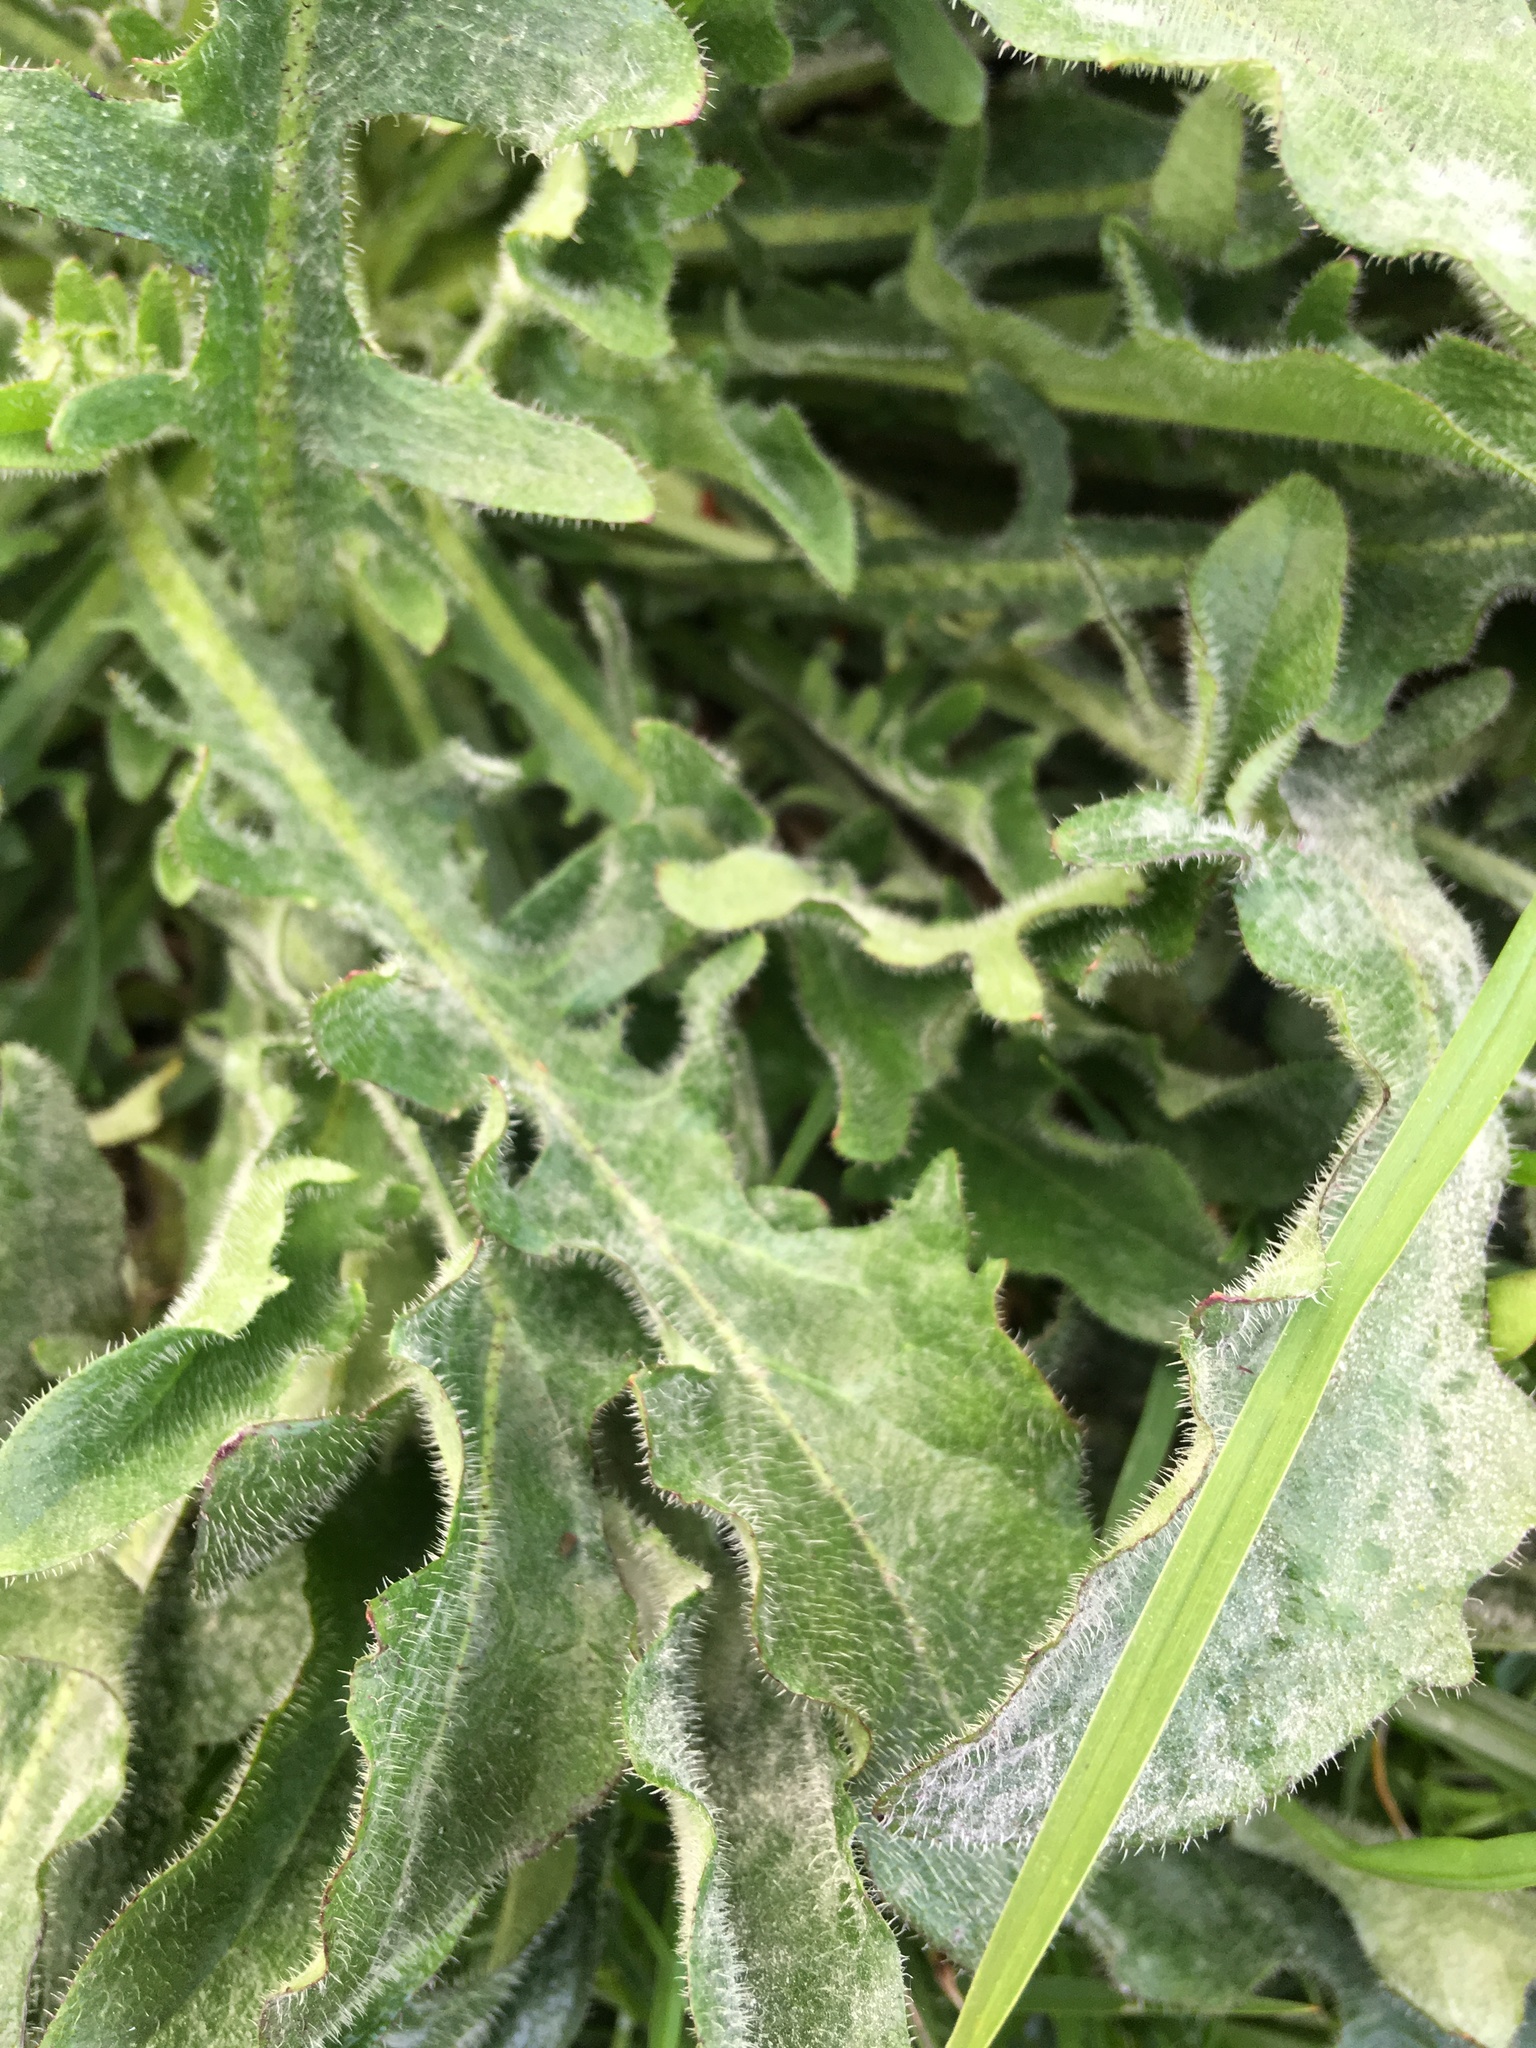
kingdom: Plantae
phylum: Tracheophyta
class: Magnoliopsida
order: Asterales
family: Asteraceae
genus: Hypochaeris
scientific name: Hypochaeris radicata
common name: Flatweed
